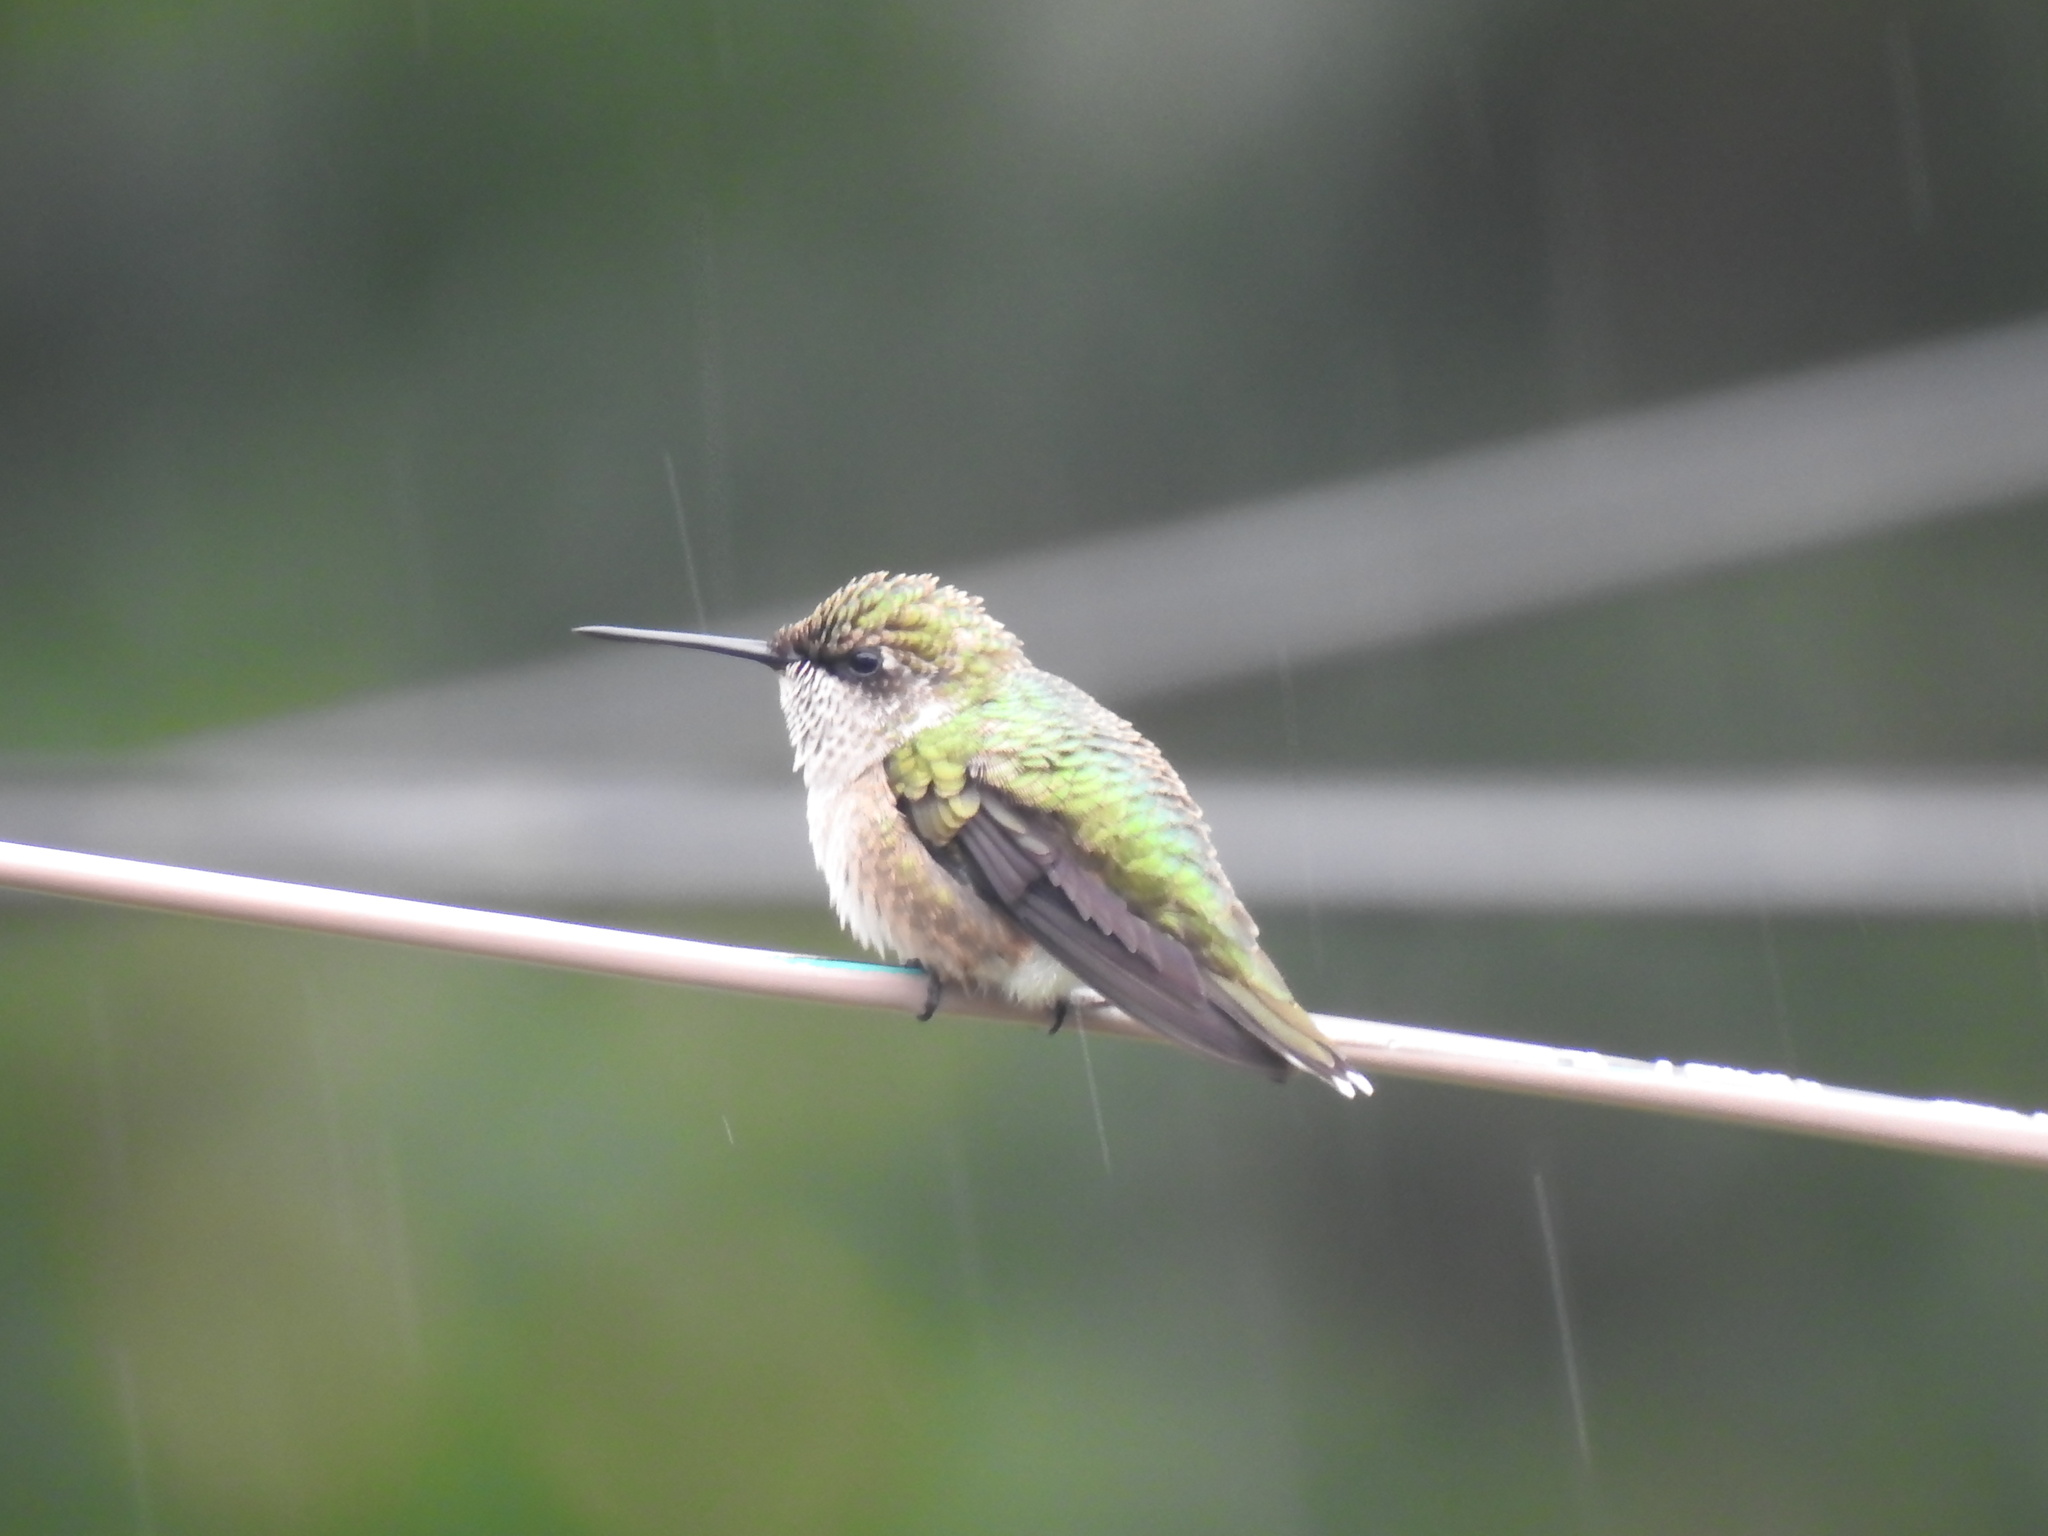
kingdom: Animalia
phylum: Chordata
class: Aves
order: Apodiformes
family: Trochilidae
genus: Archilochus
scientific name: Archilochus colubris
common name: Ruby-throated hummingbird
